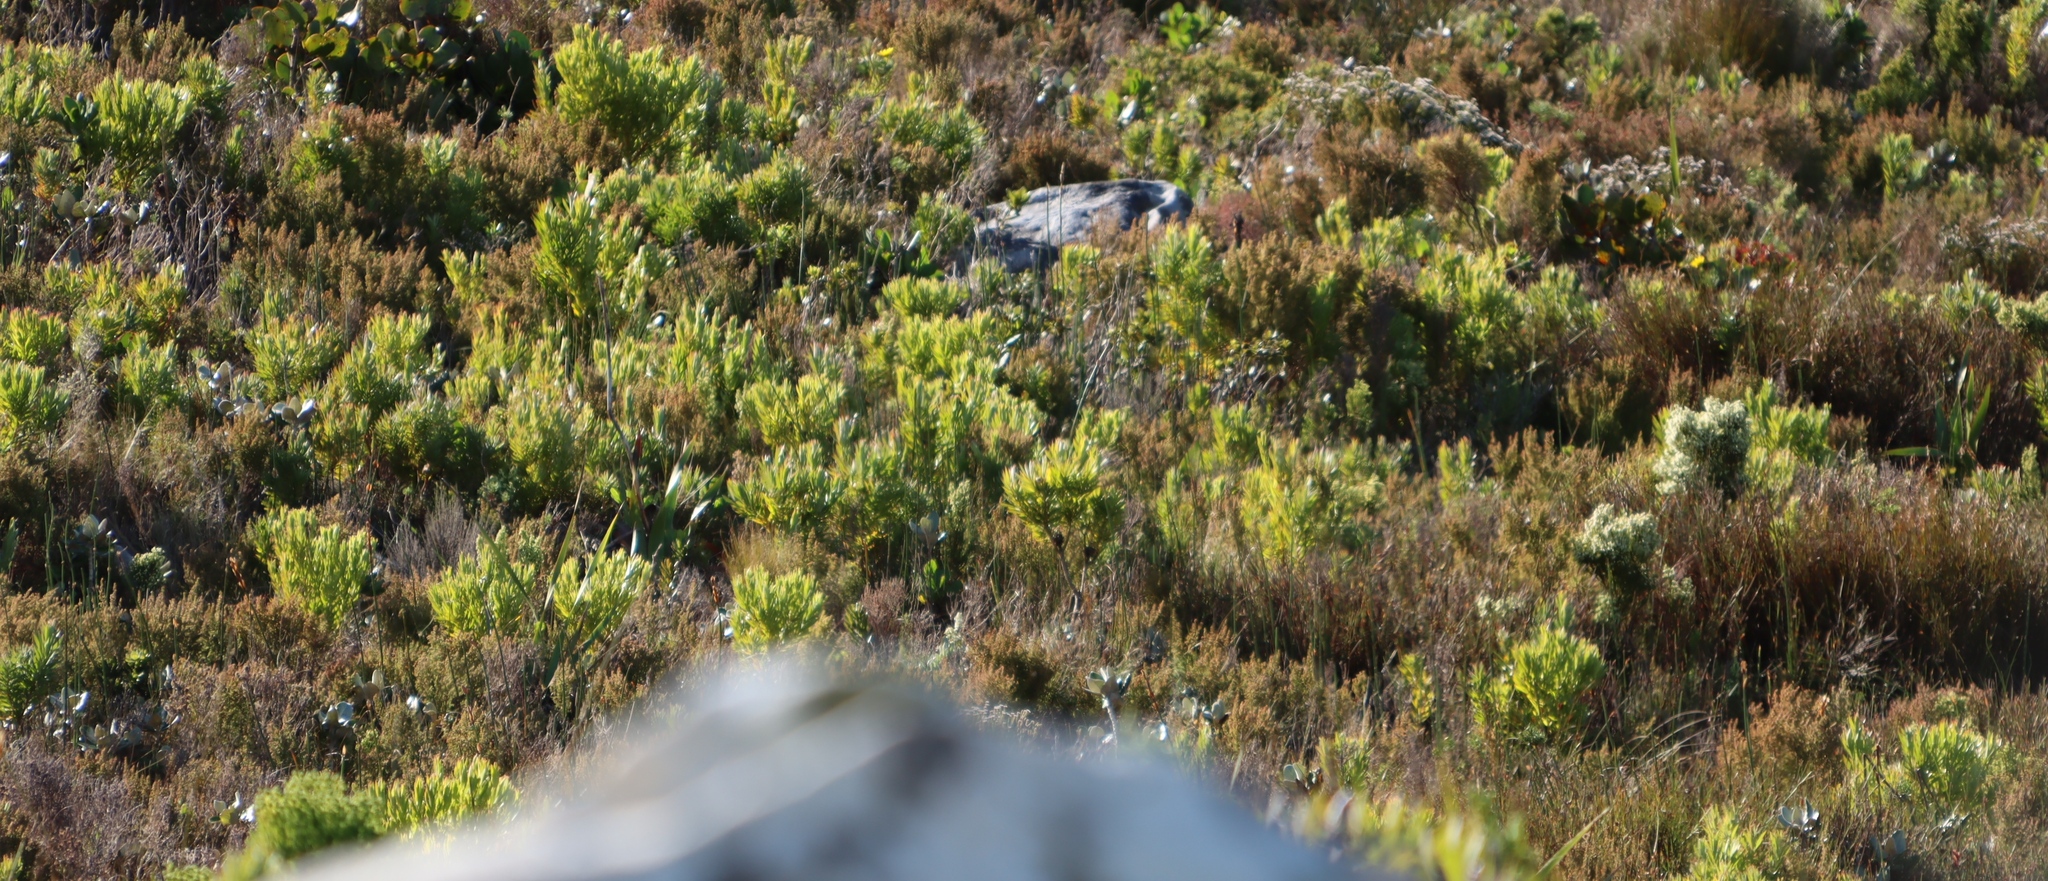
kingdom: Plantae
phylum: Tracheophyta
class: Magnoliopsida
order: Proteales
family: Proteaceae
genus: Leucadendron
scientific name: Leucadendron xanthoconus
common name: Sickle-leaf conebush
